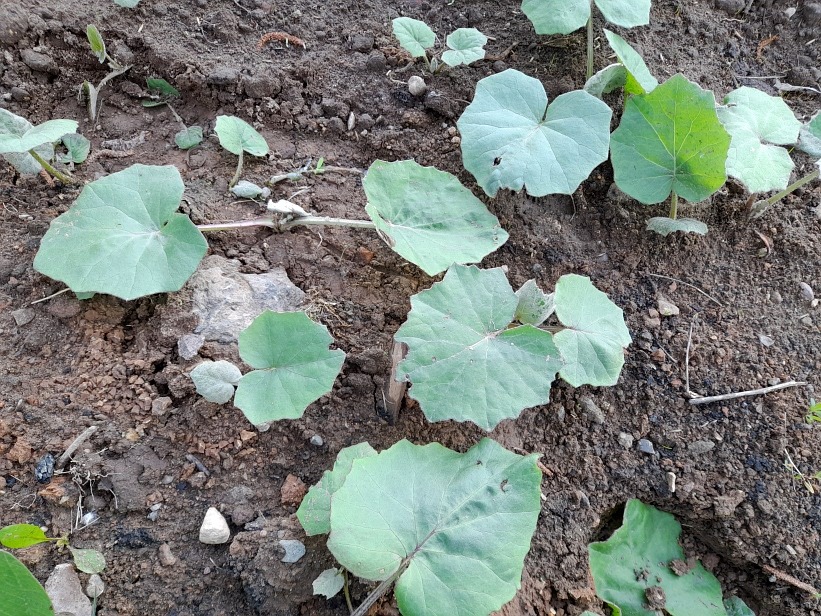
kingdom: Plantae
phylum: Tracheophyta
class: Magnoliopsida
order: Asterales
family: Asteraceae
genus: Tussilago
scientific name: Tussilago farfara
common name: Coltsfoot
